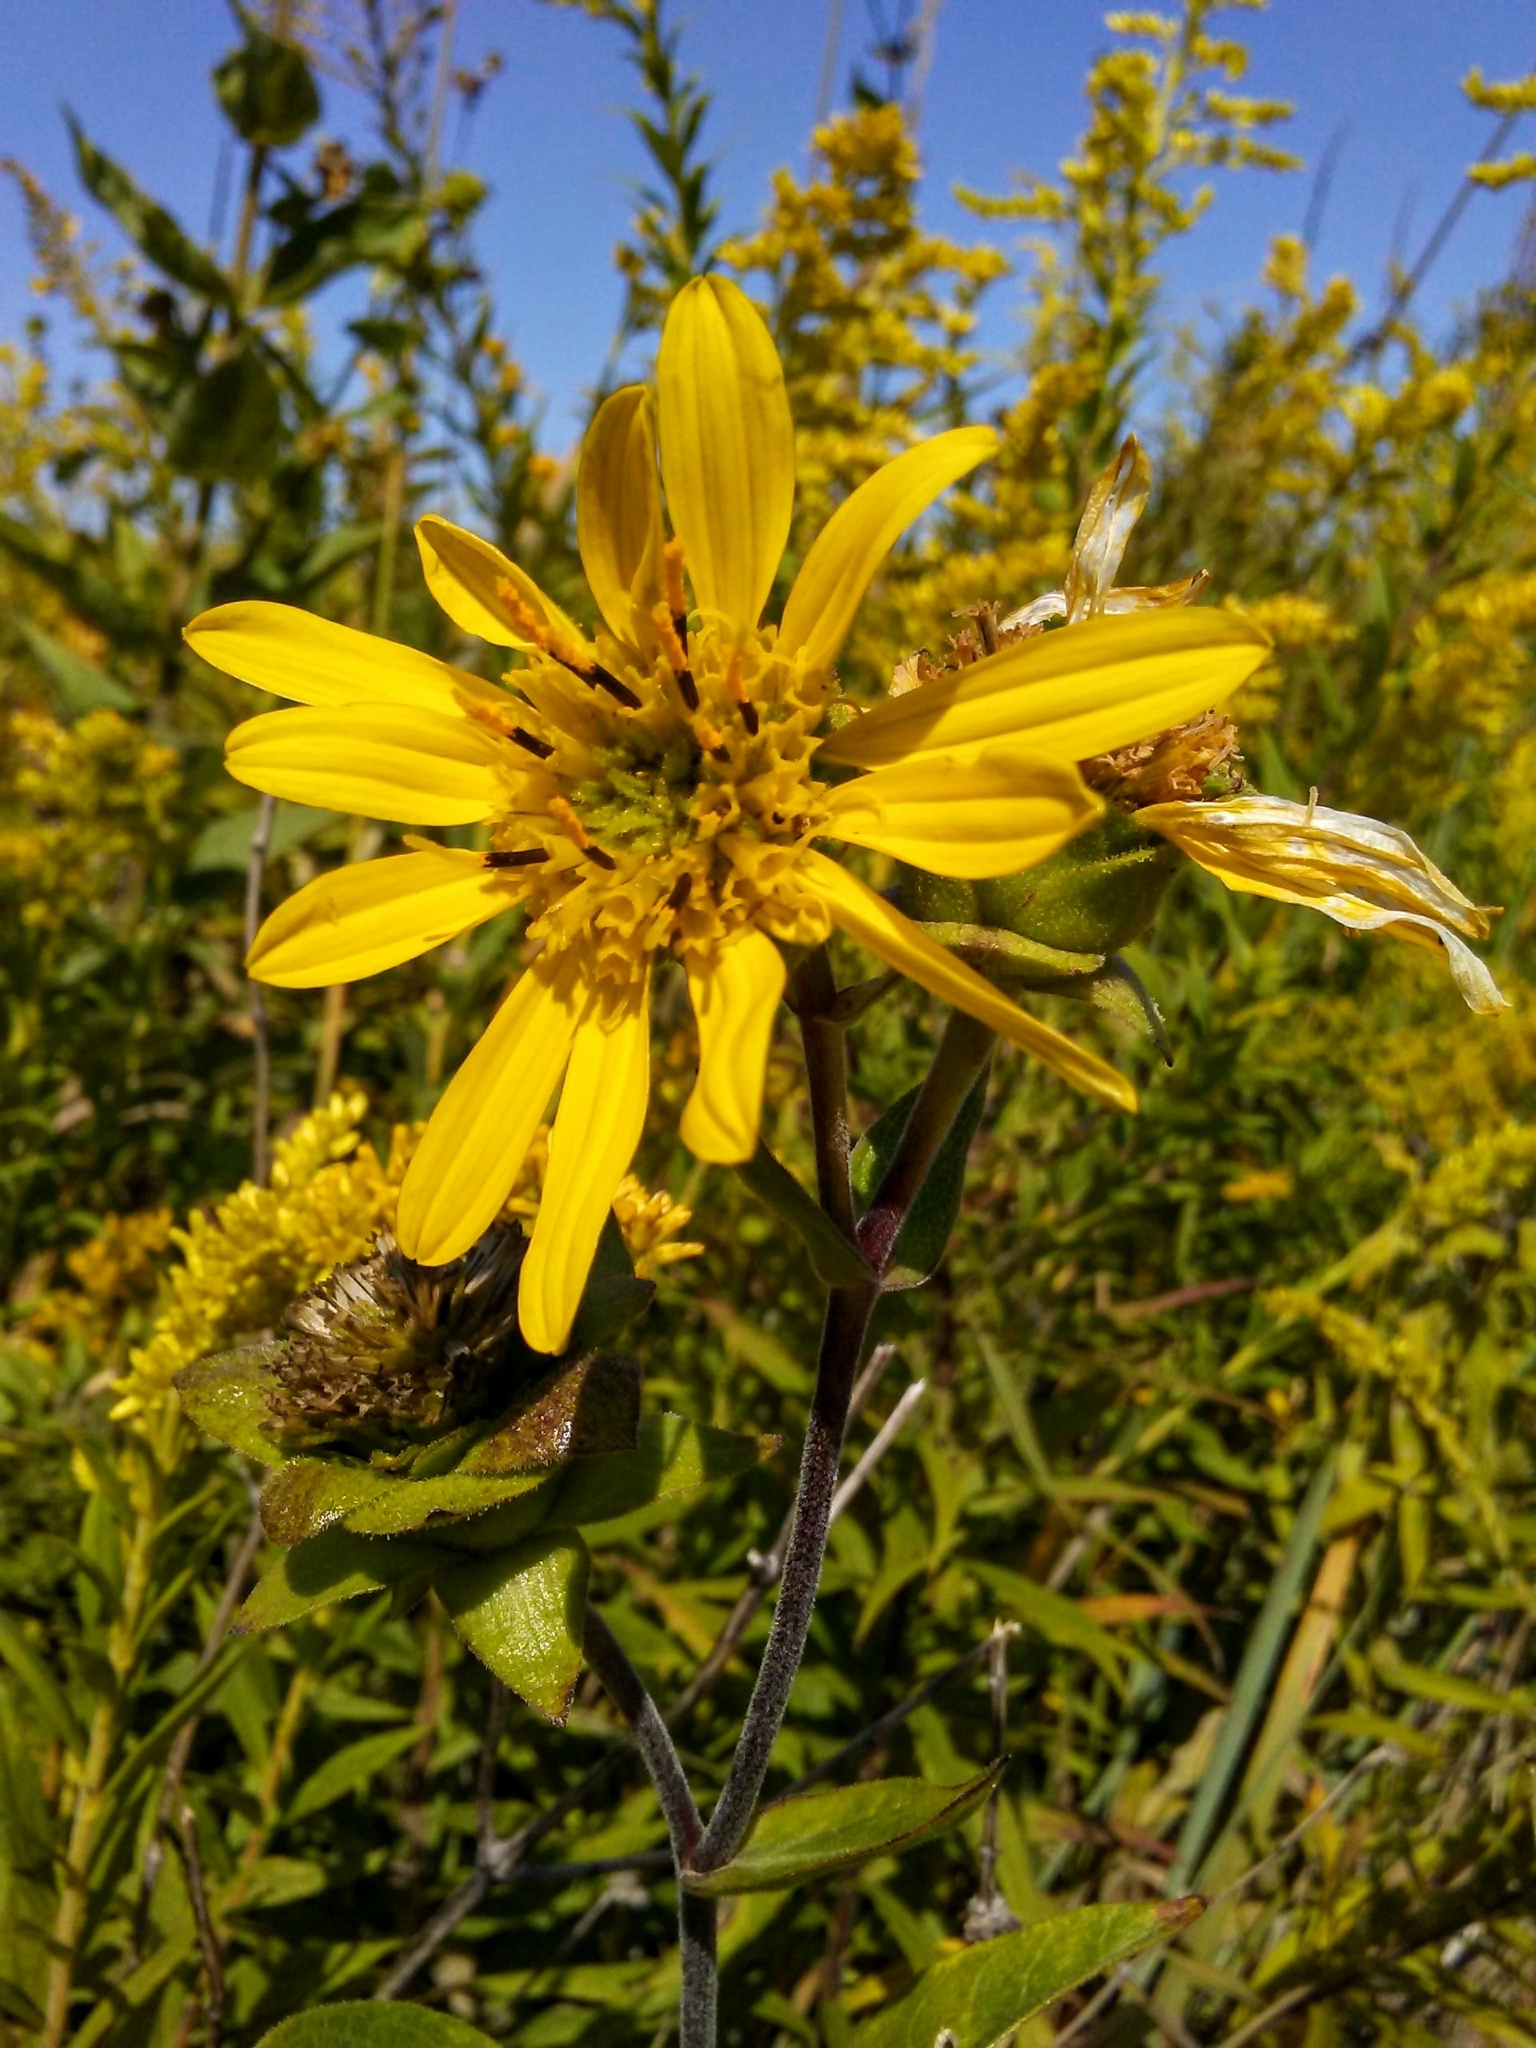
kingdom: Plantae
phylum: Tracheophyta
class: Magnoliopsida
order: Asterales
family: Asteraceae
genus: Silphium
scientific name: Silphium integrifolium
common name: Whole-leaf rosinweed
